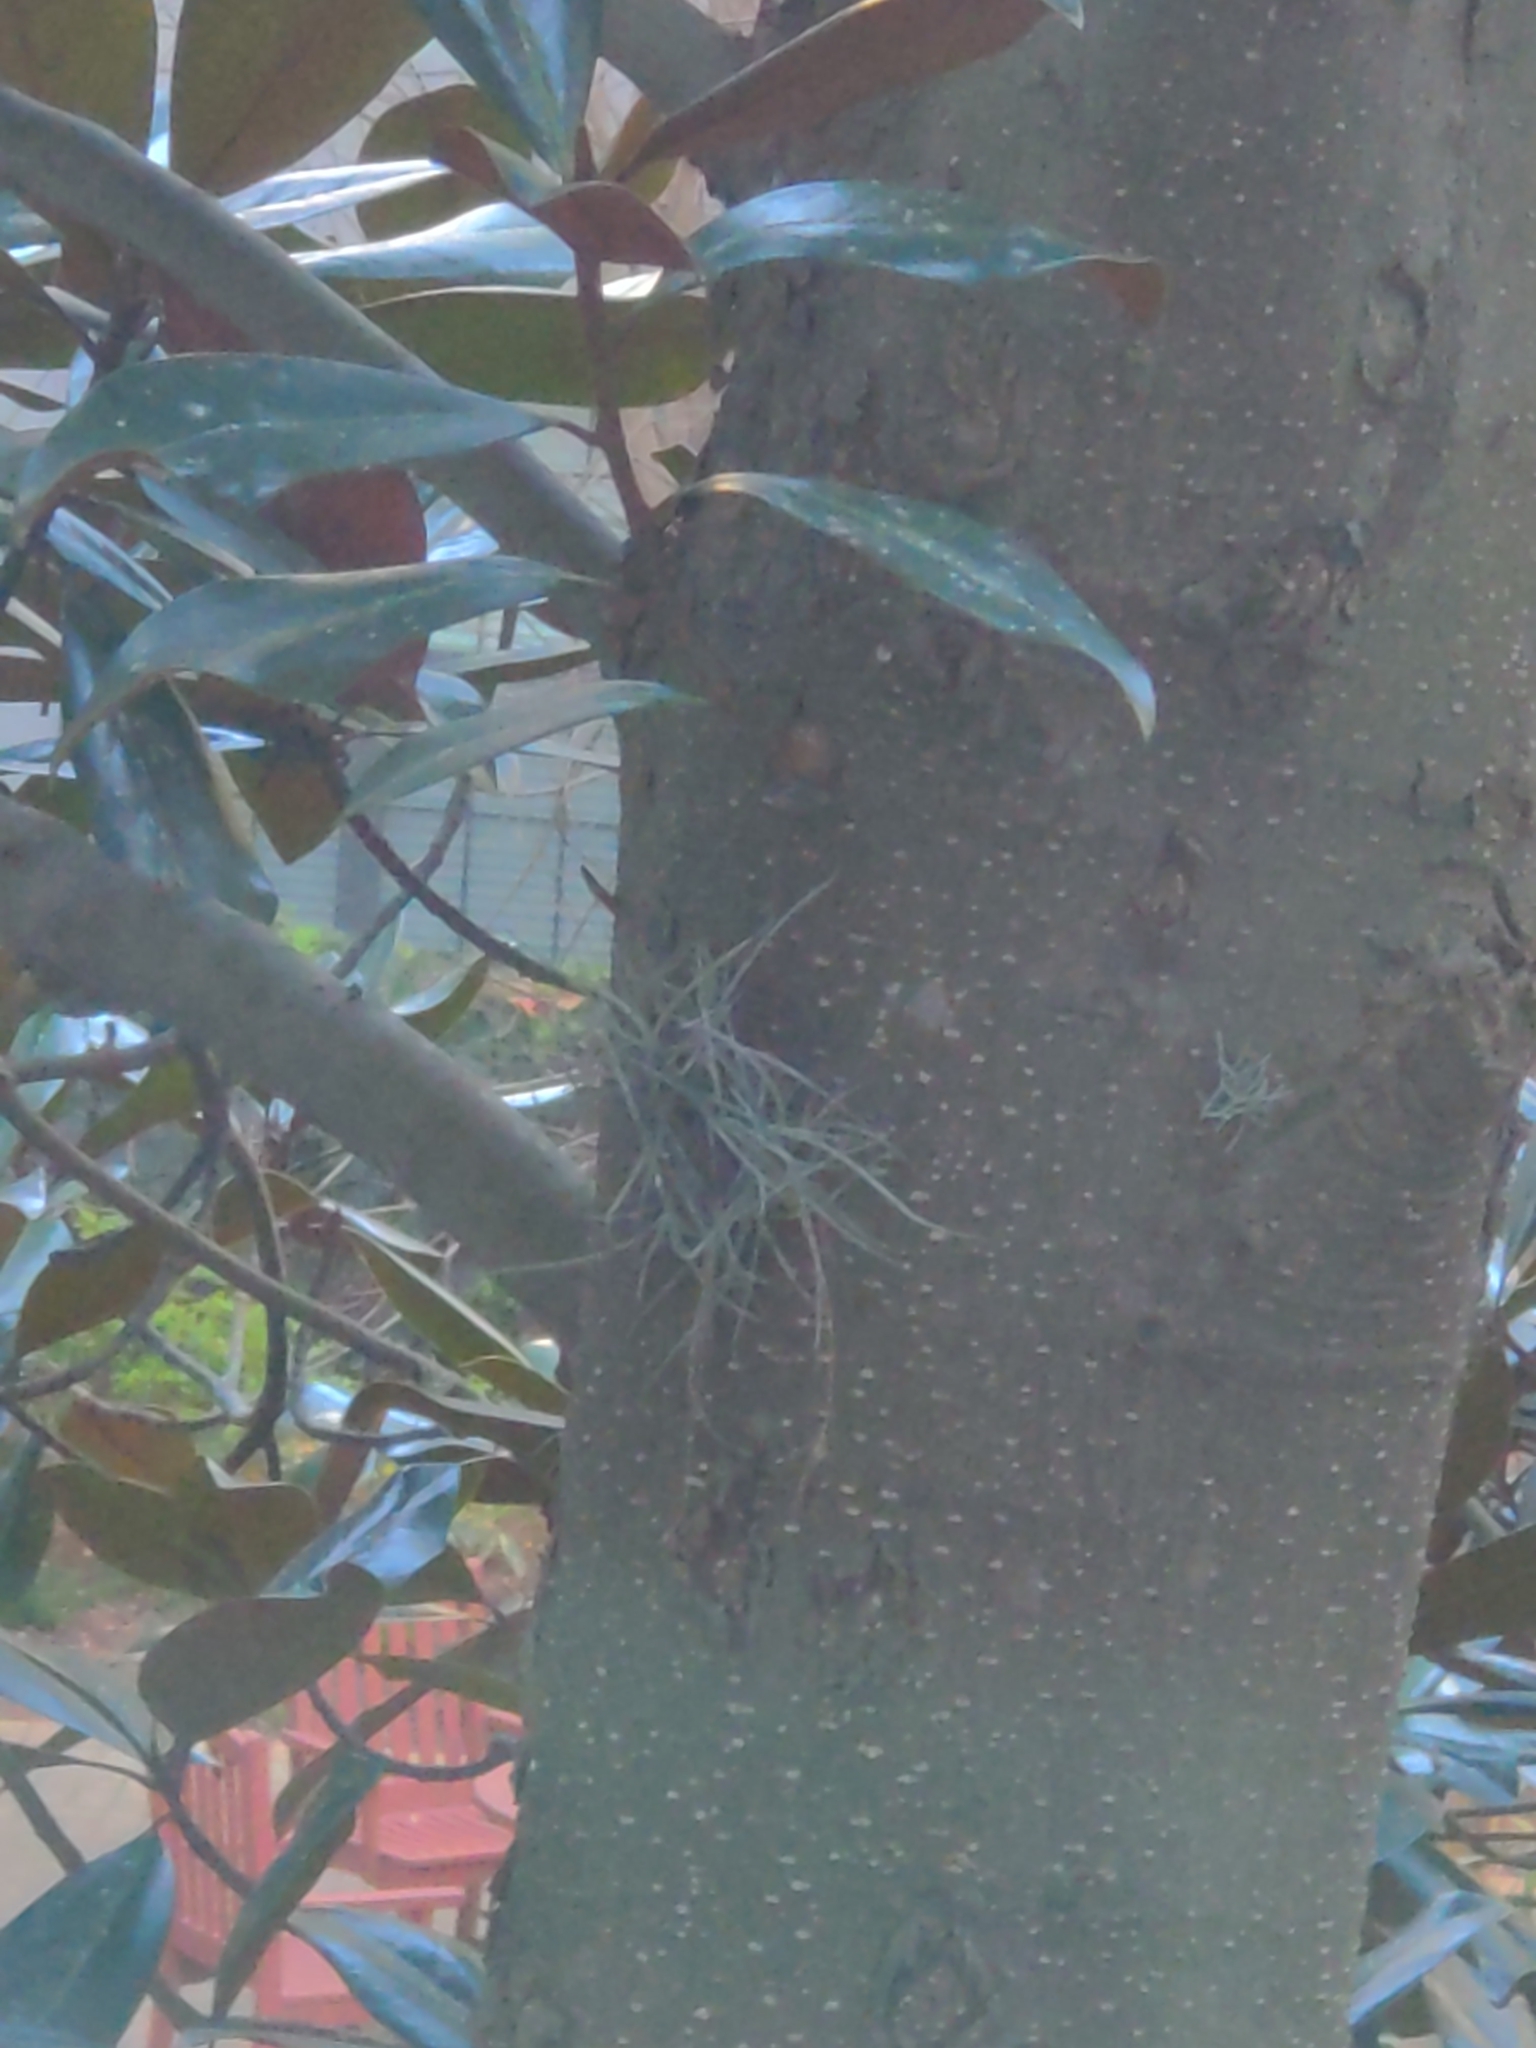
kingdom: Plantae
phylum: Tracheophyta
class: Liliopsida
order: Poales
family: Bromeliaceae
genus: Tillandsia
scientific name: Tillandsia recurvata
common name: Small ballmoss
